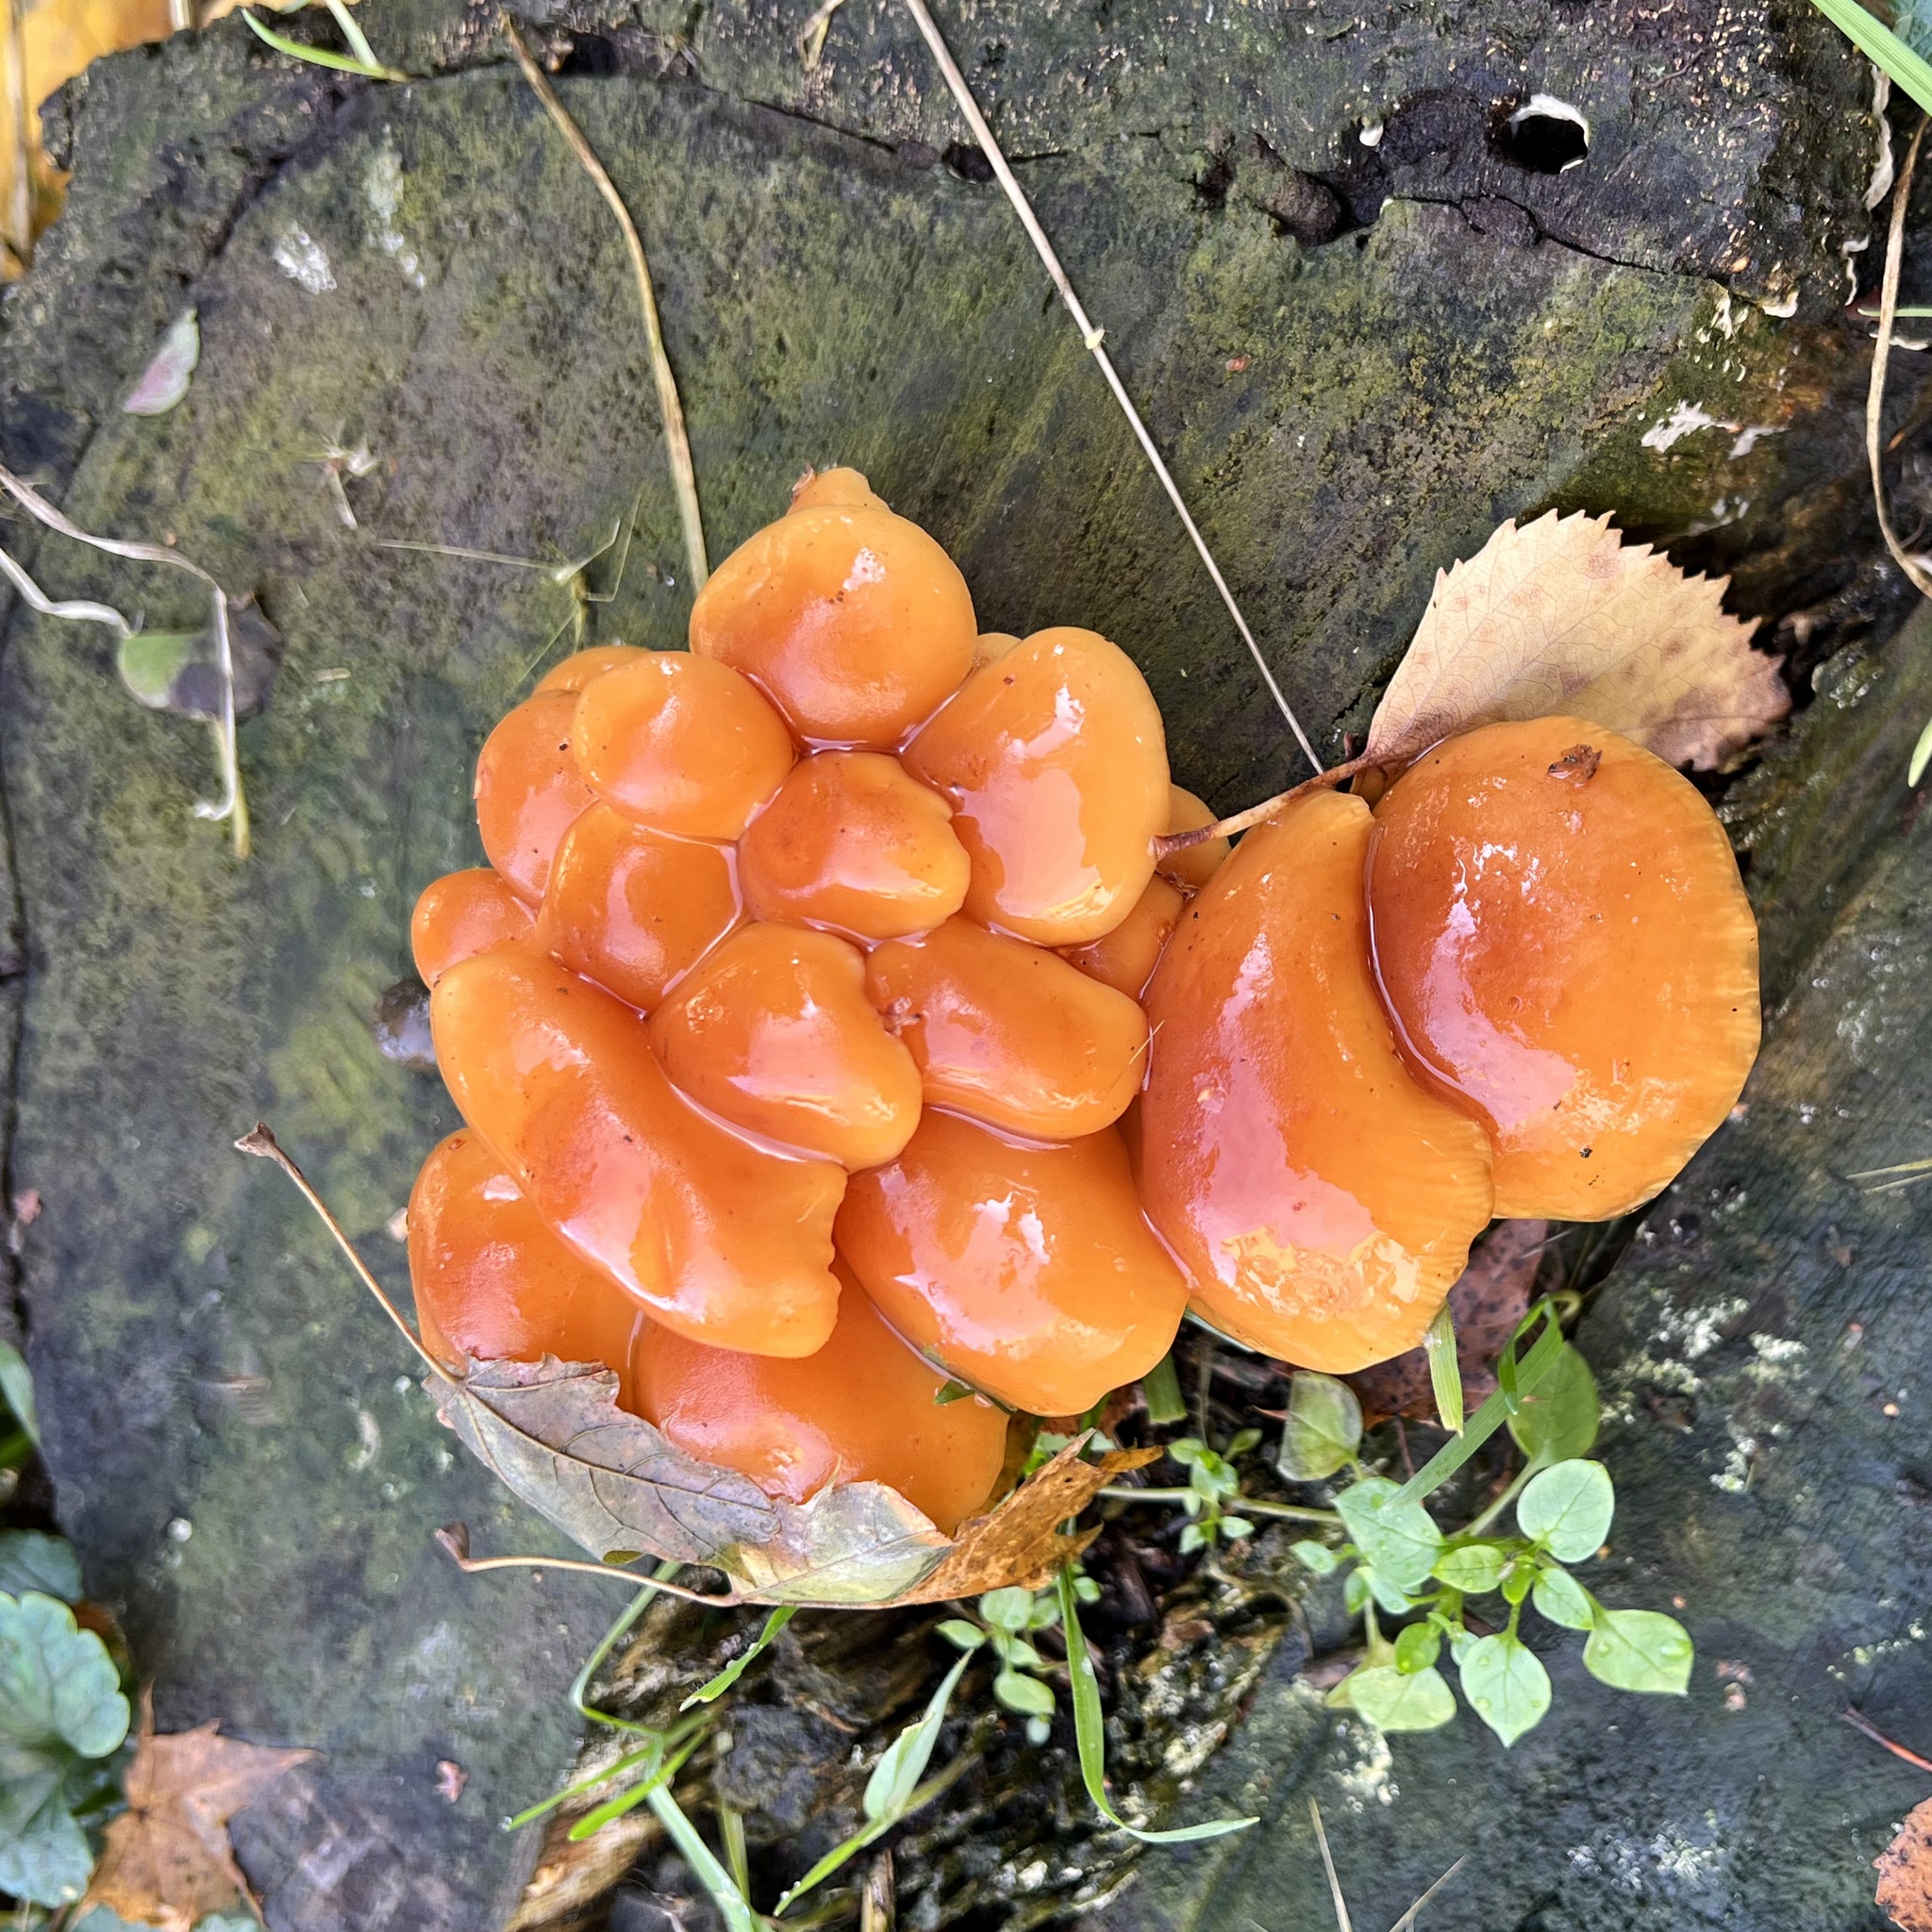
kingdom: Fungi
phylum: Basidiomycota
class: Agaricomycetes
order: Agaricales
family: Physalacriaceae
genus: Flammulina
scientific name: Flammulina
